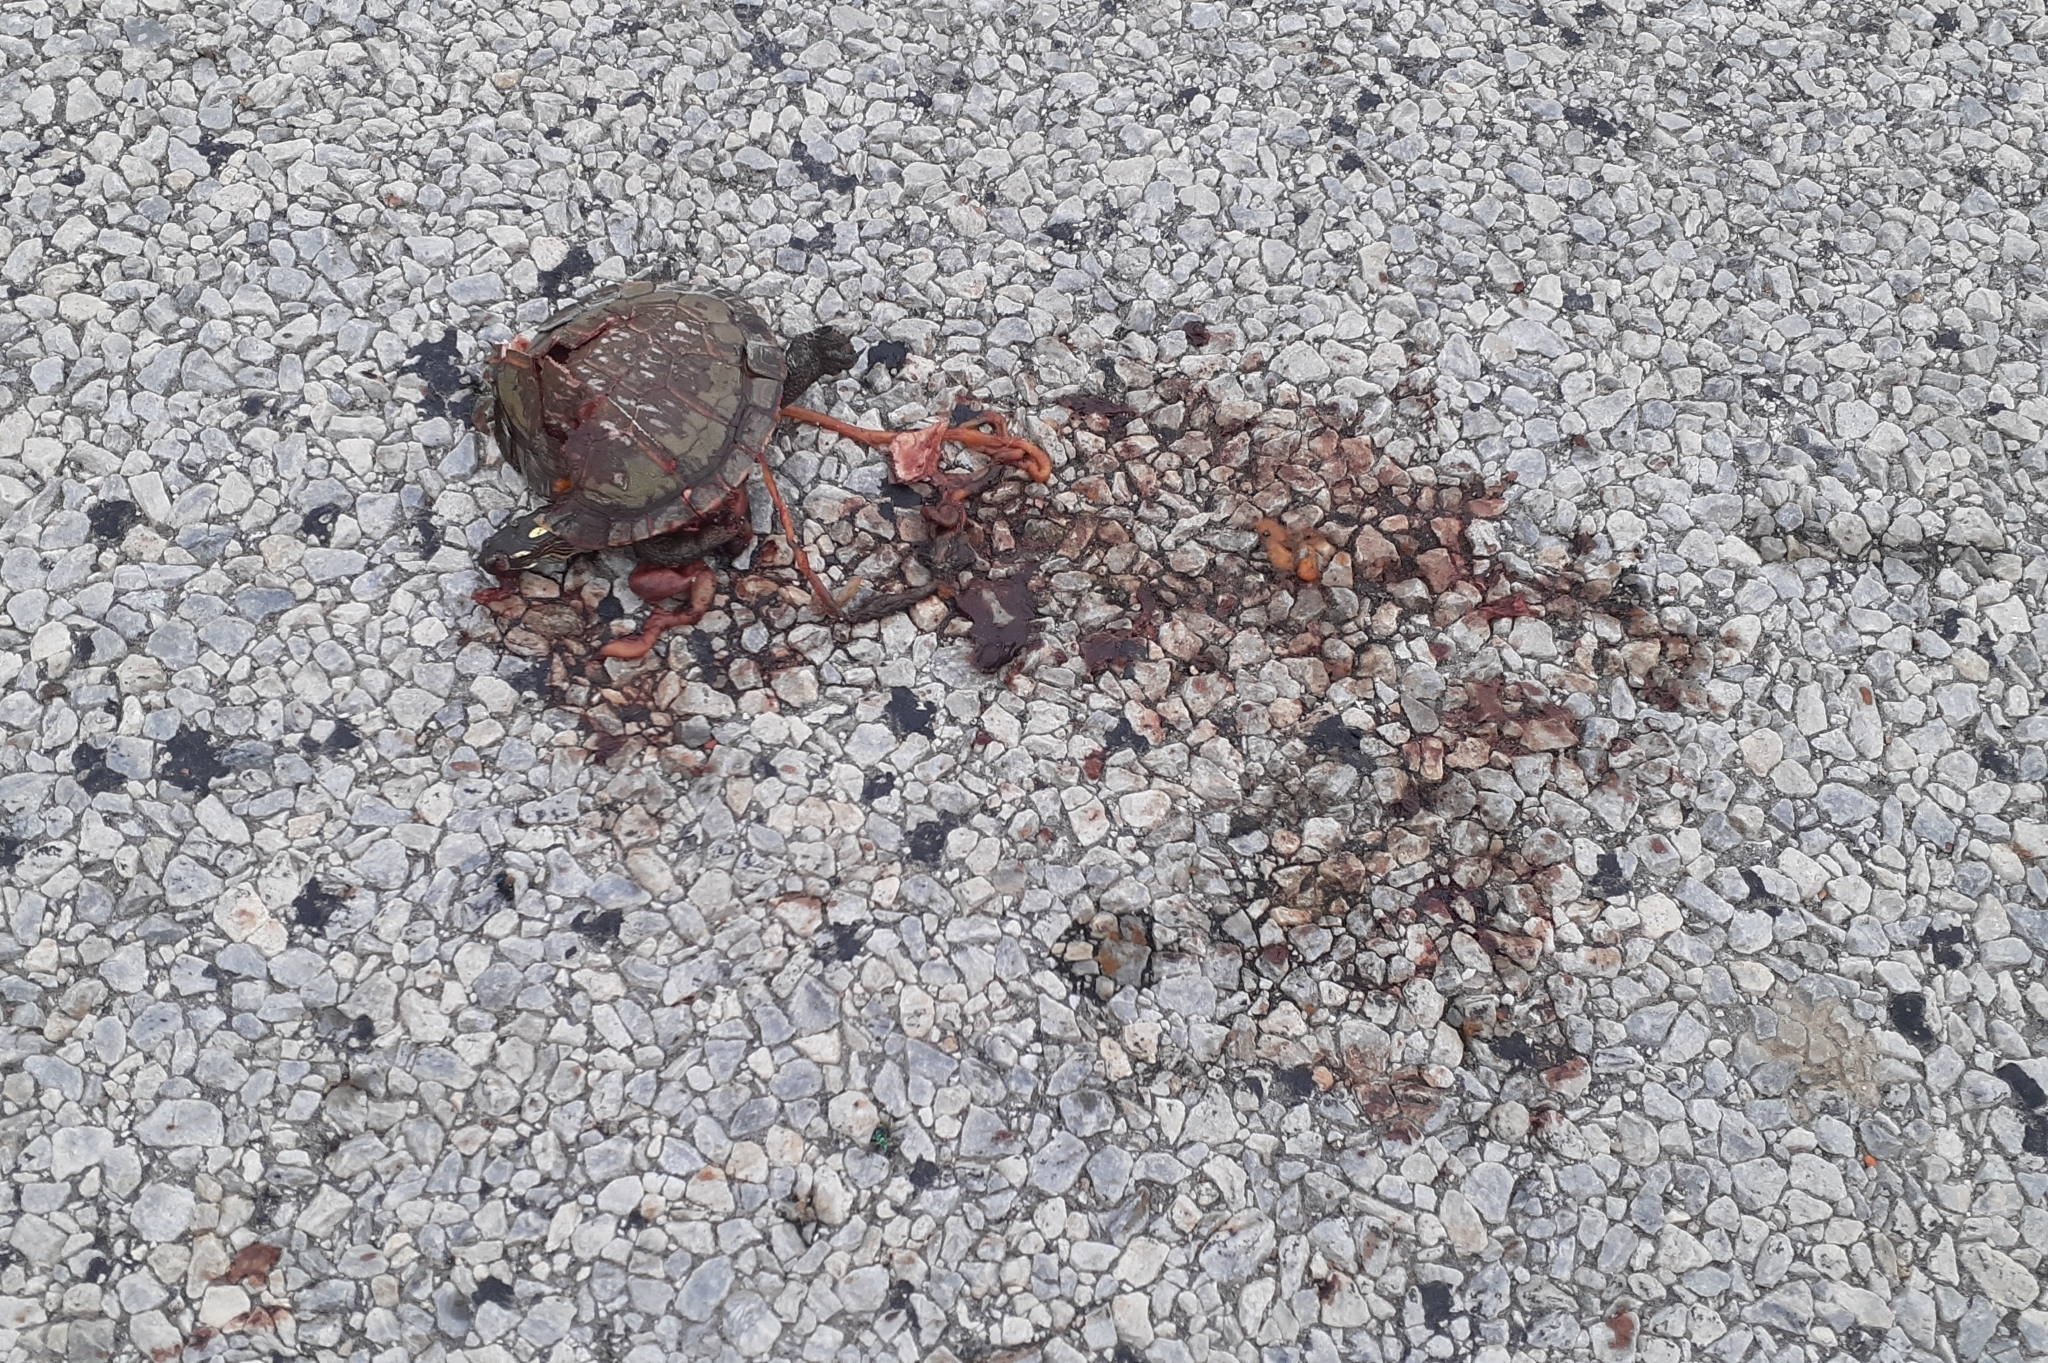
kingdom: Animalia
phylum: Chordata
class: Testudines
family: Emydidae
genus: Chrysemys
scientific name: Chrysemys picta
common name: Painted turtle
